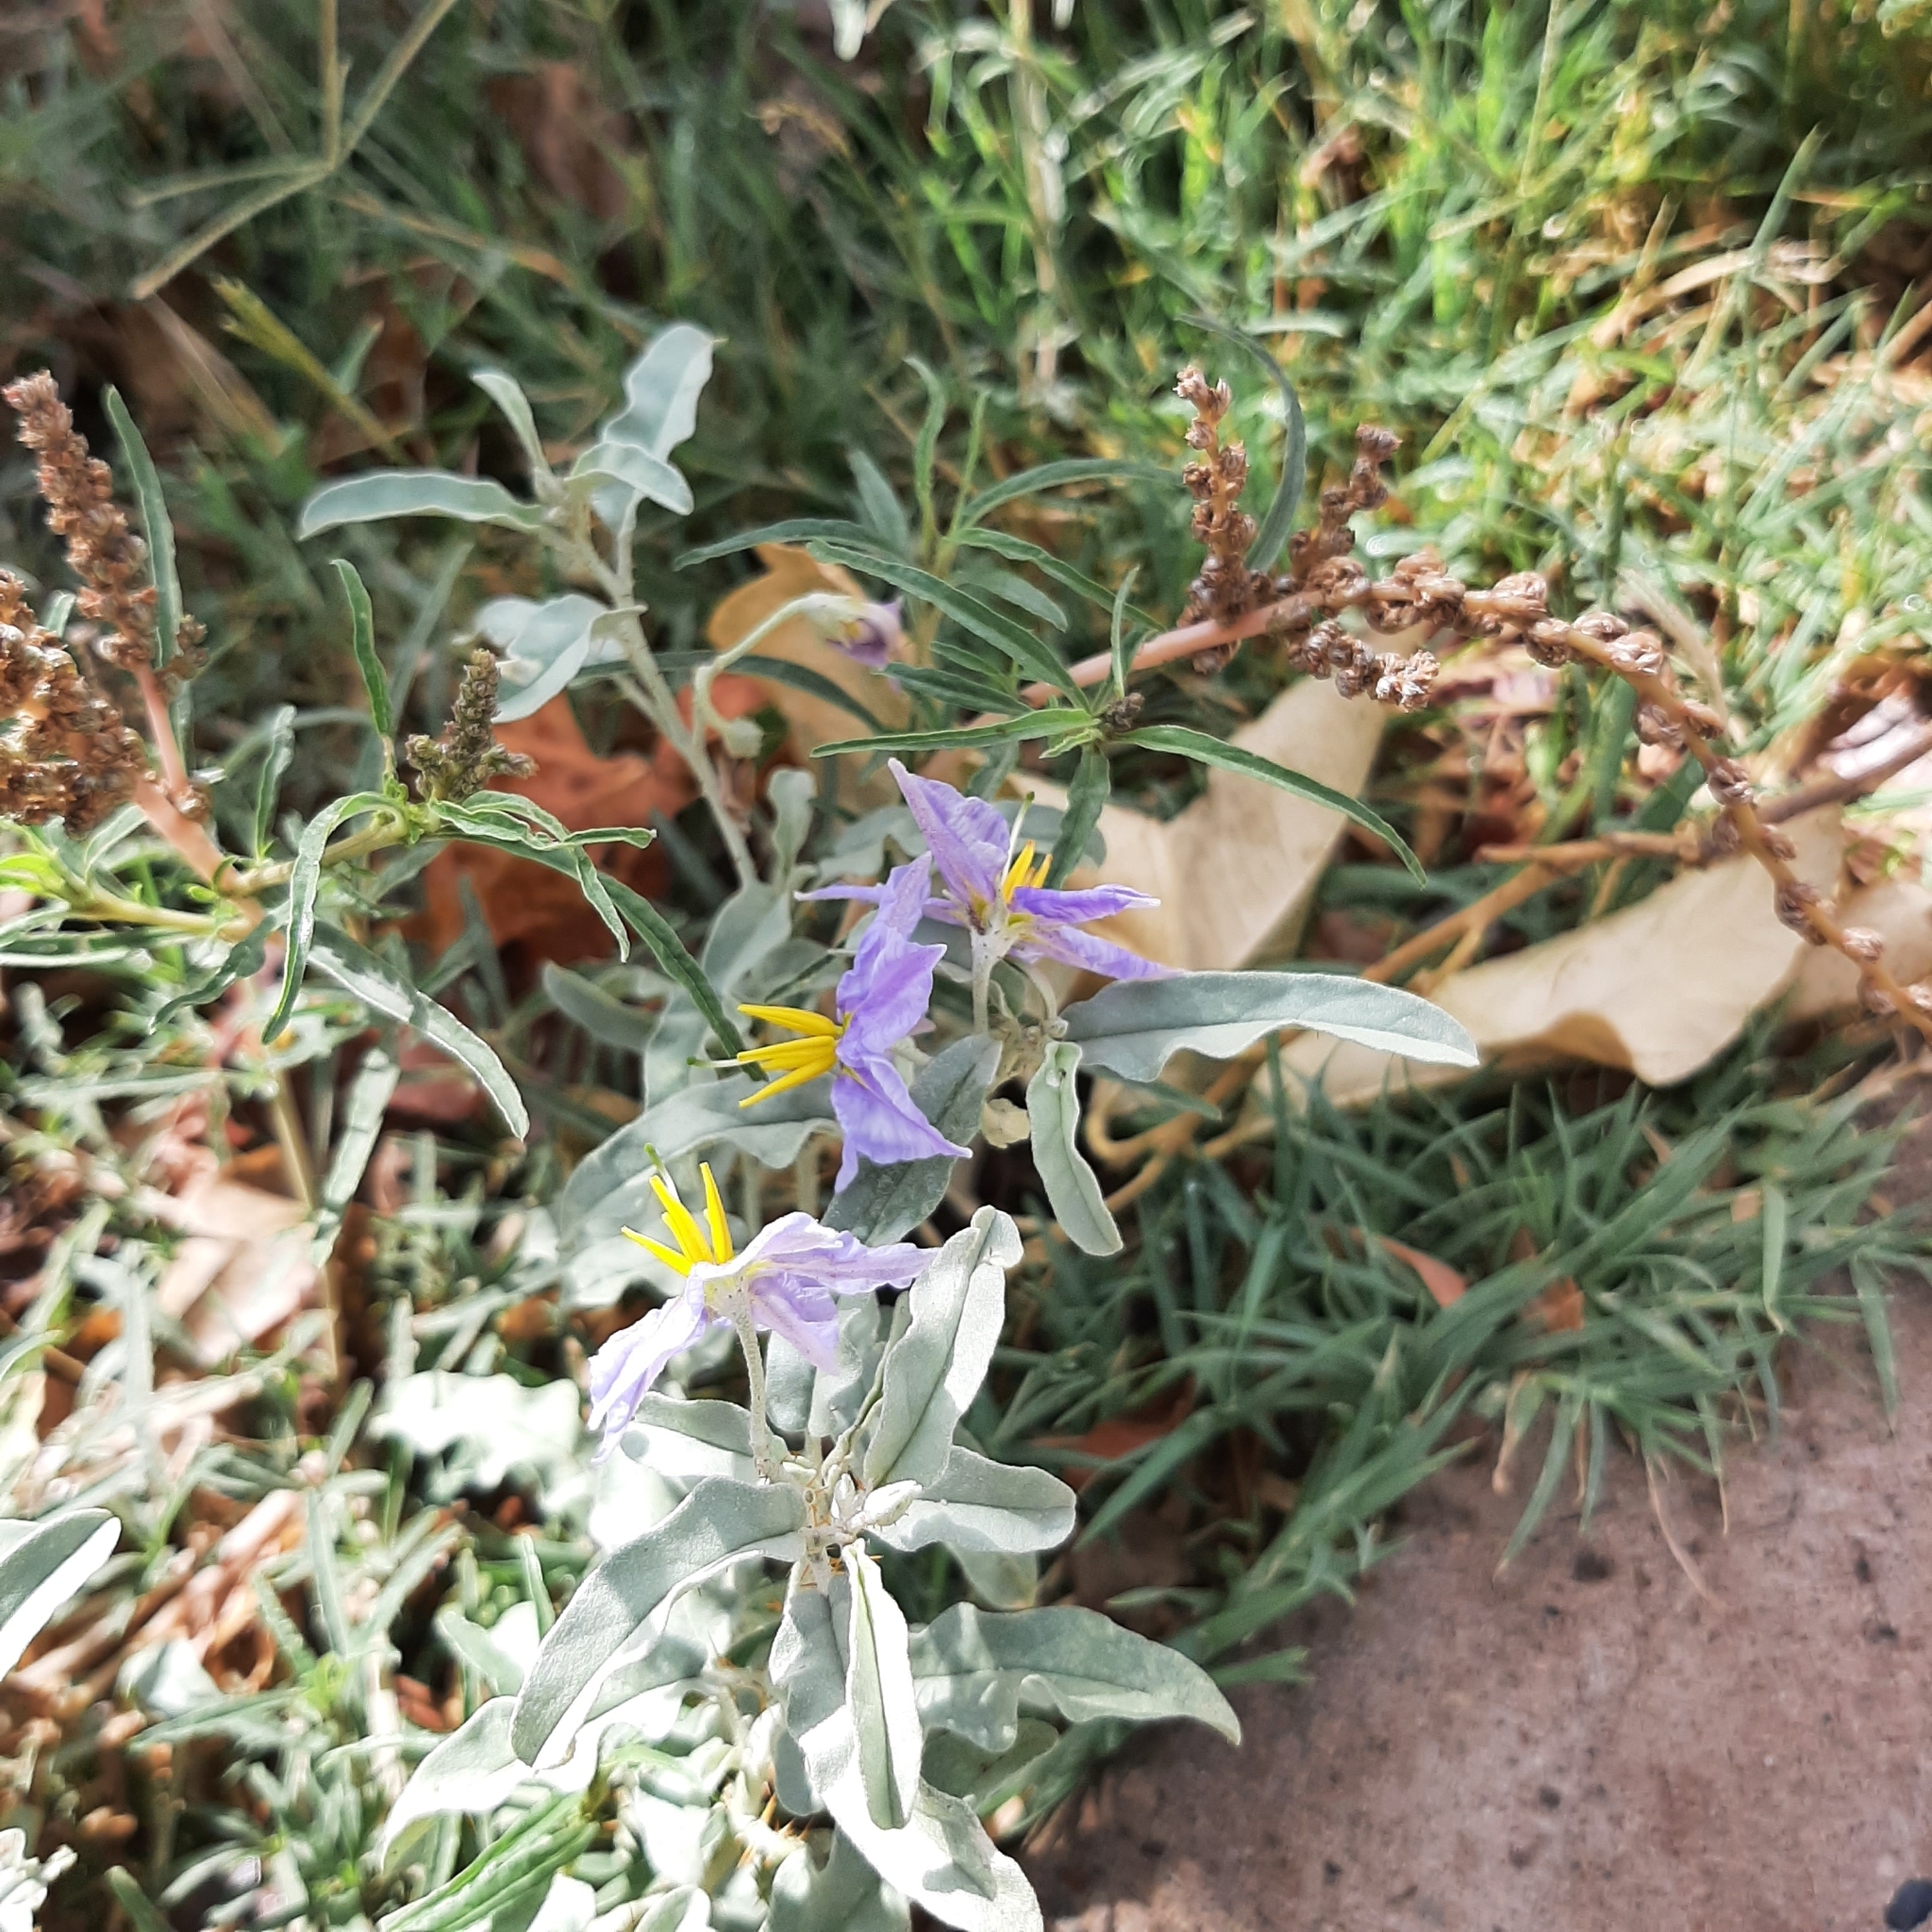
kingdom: Plantae
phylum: Tracheophyta
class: Magnoliopsida
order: Solanales
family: Solanaceae
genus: Solanum
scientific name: Solanum elaeagnifolium
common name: Silverleaf nightshade
